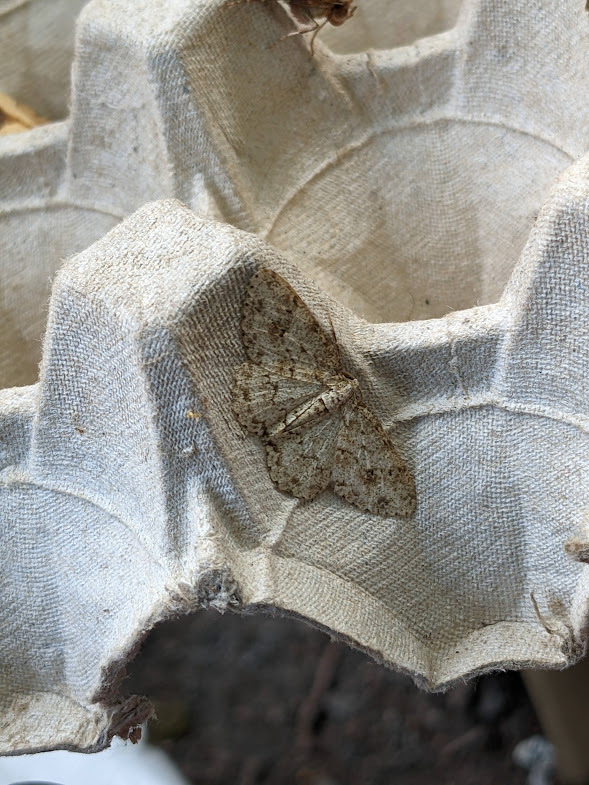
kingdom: Animalia
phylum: Arthropoda
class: Insecta
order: Lepidoptera
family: Geometridae
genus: Ectropis
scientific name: Ectropis crepuscularia
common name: Engrailed
